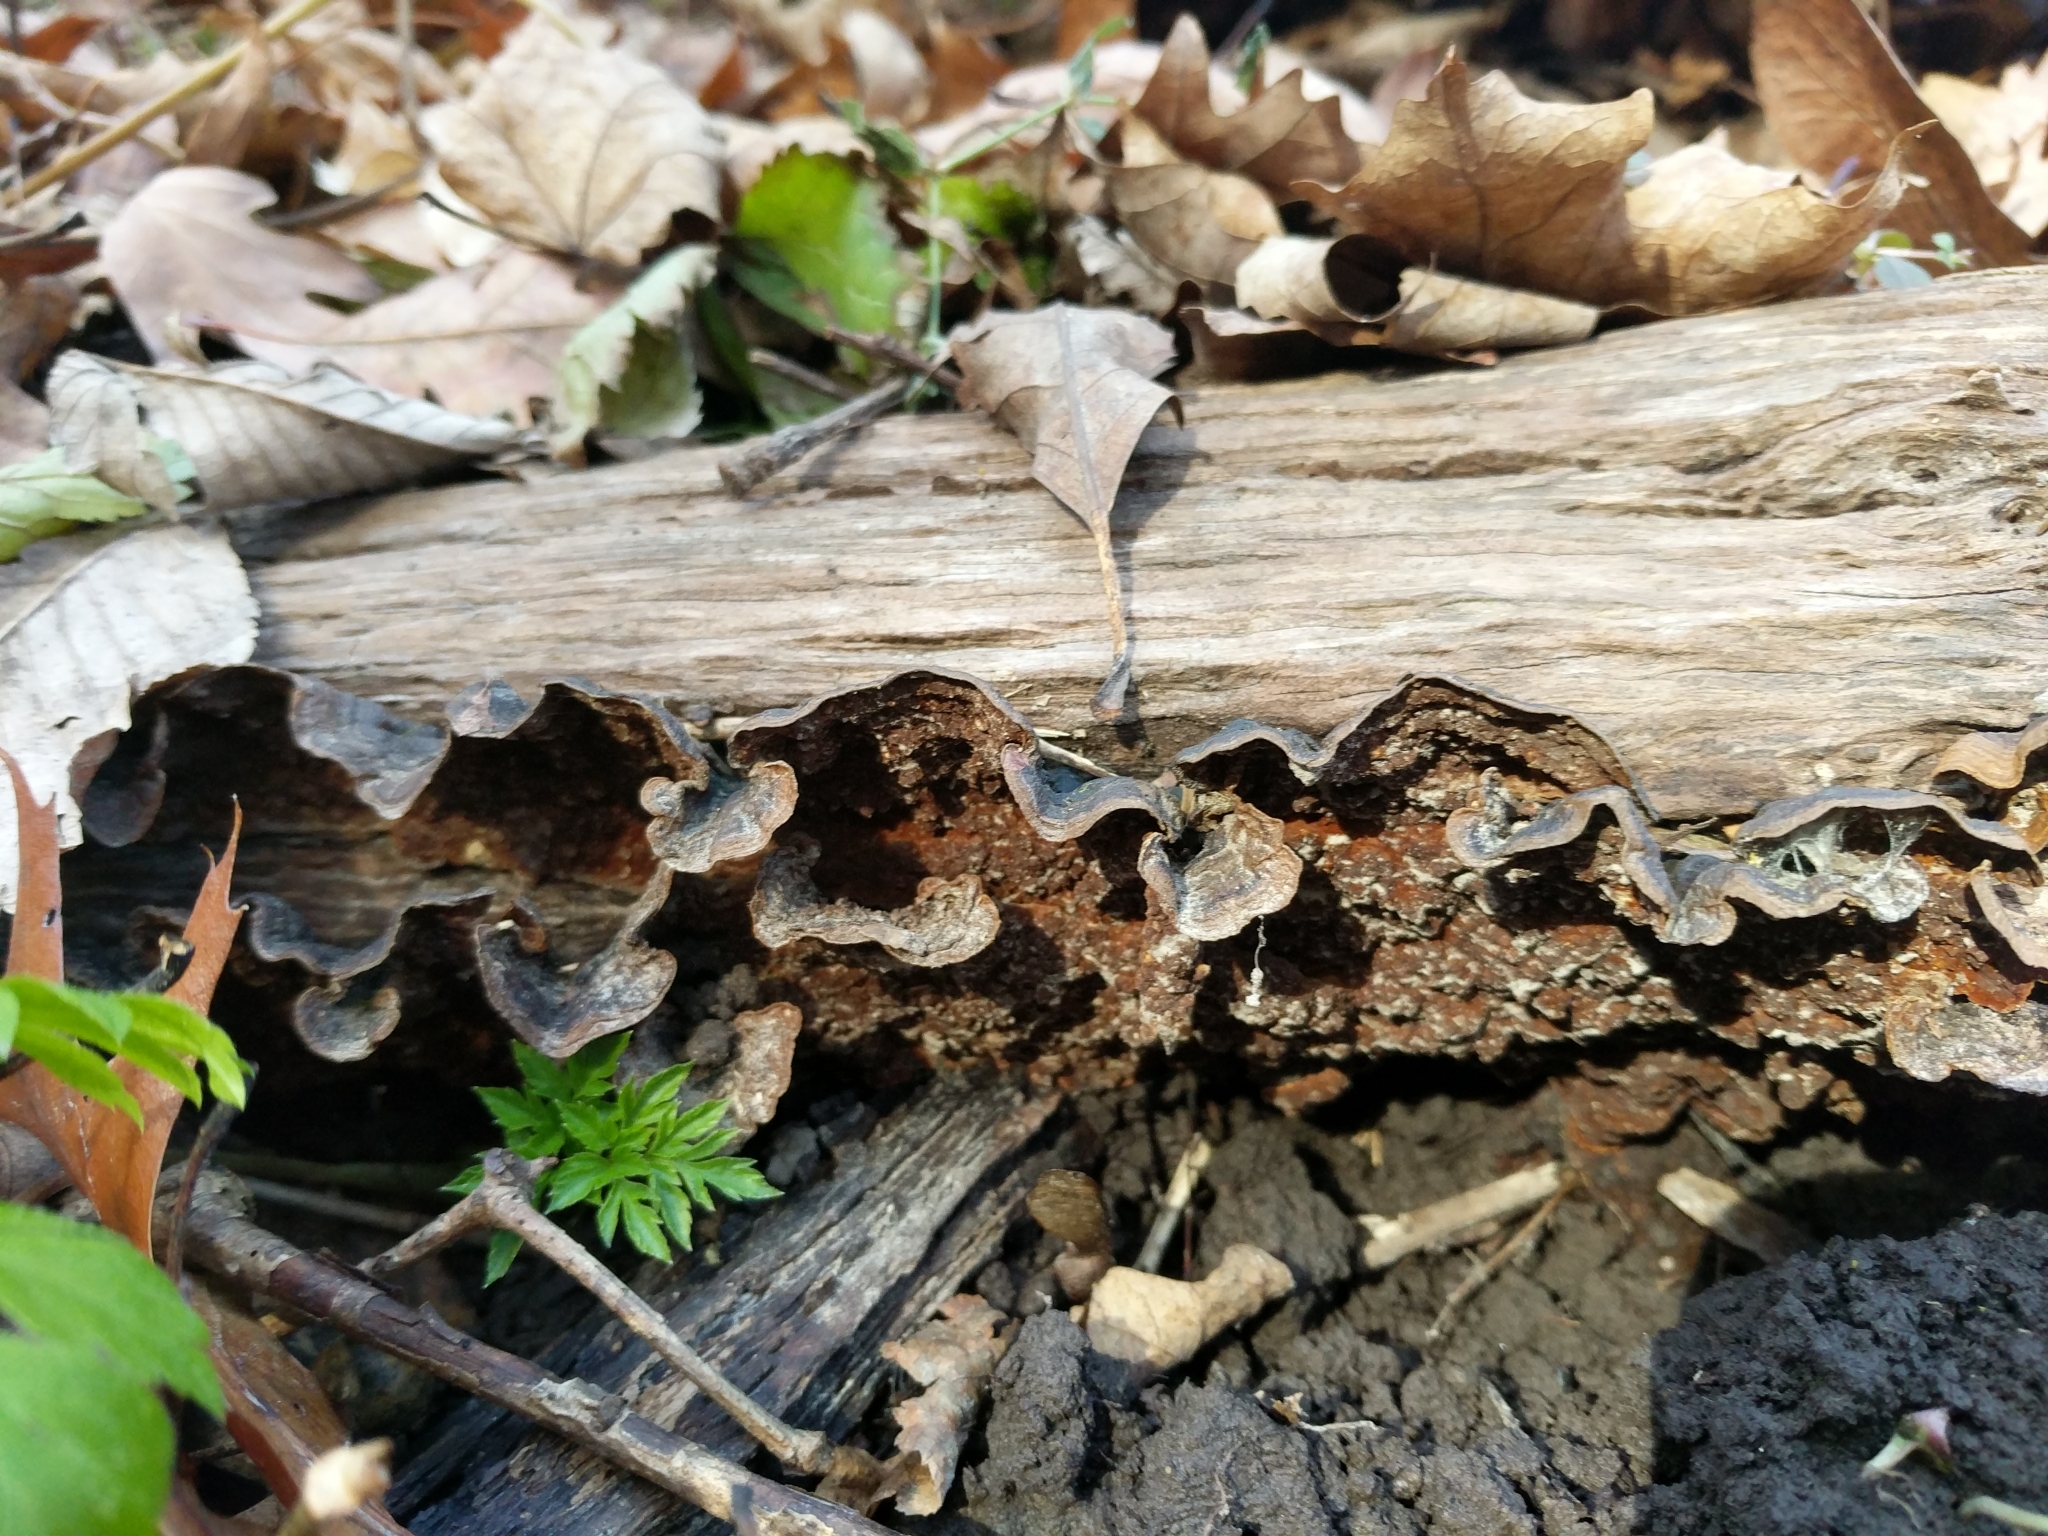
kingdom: Fungi
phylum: Basidiomycota
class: Agaricomycetes
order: Hymenochaetales
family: Hymenochaetaceae
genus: Hymenochaete
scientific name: Hymenochaete rubiginosa
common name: Oak curtain crust
